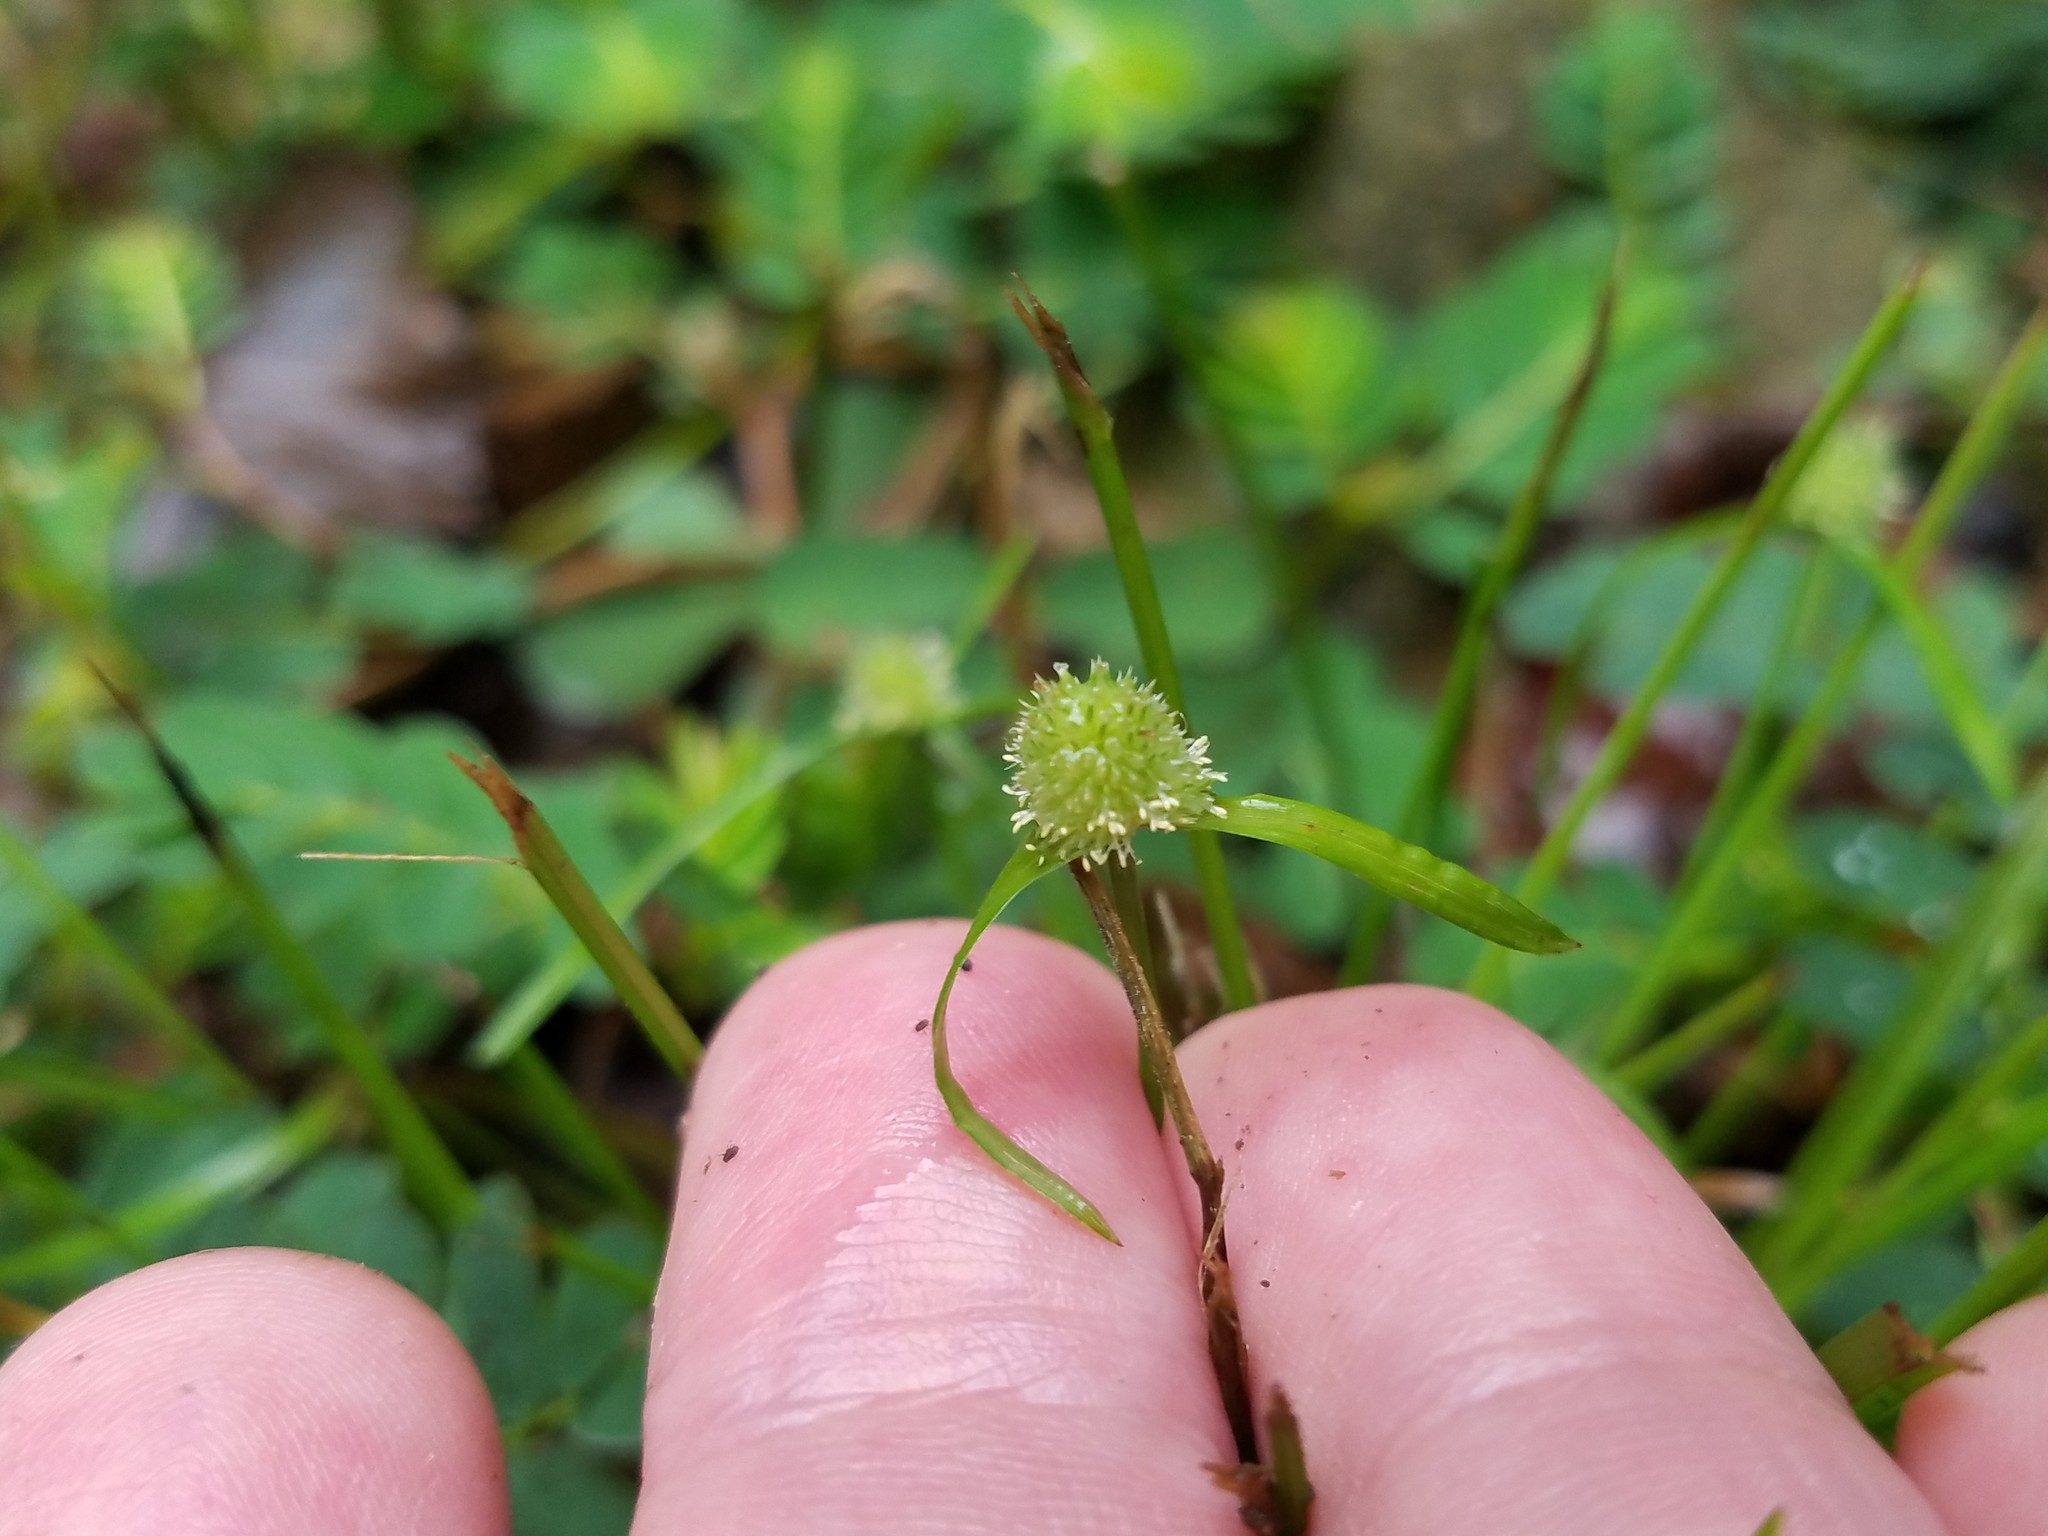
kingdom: Plantae
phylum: Tracheophyta
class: Liliopsida
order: Poales
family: Cyperaceae
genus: Cyperus
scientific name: Cyperus brevifolius
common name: Globe kyllinga
